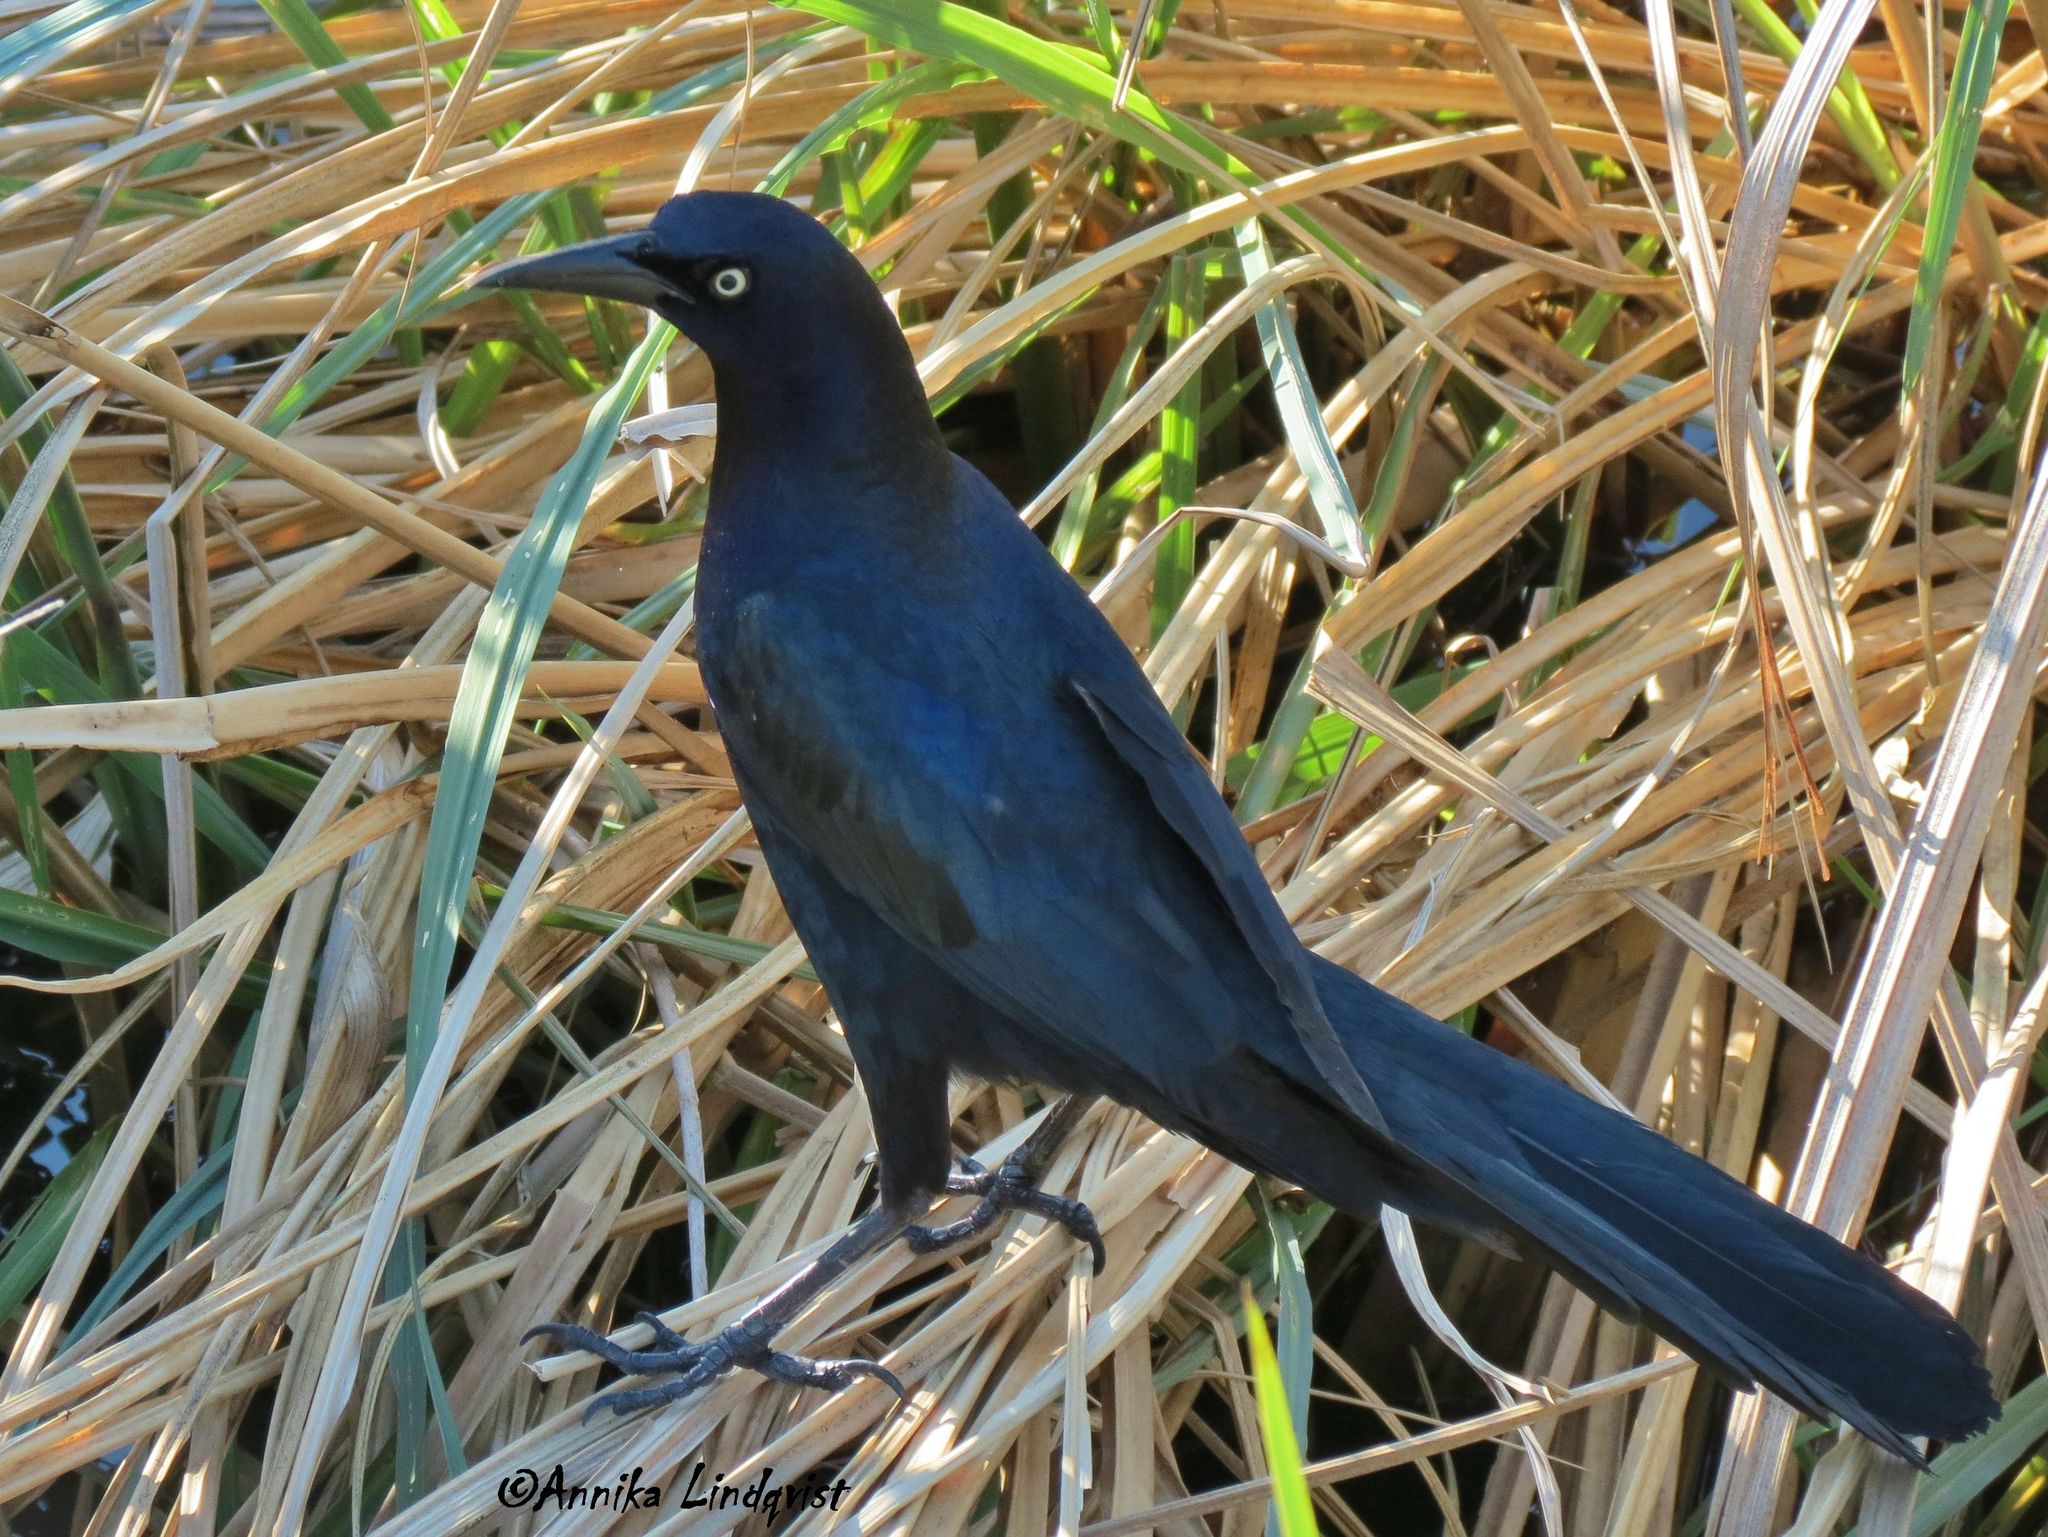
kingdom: Animalia
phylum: Chordata
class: Aves
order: Passeriformes
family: Icteridae
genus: Quiscalus
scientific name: Quiscalus mexicanus
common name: Great-tailed grackle
